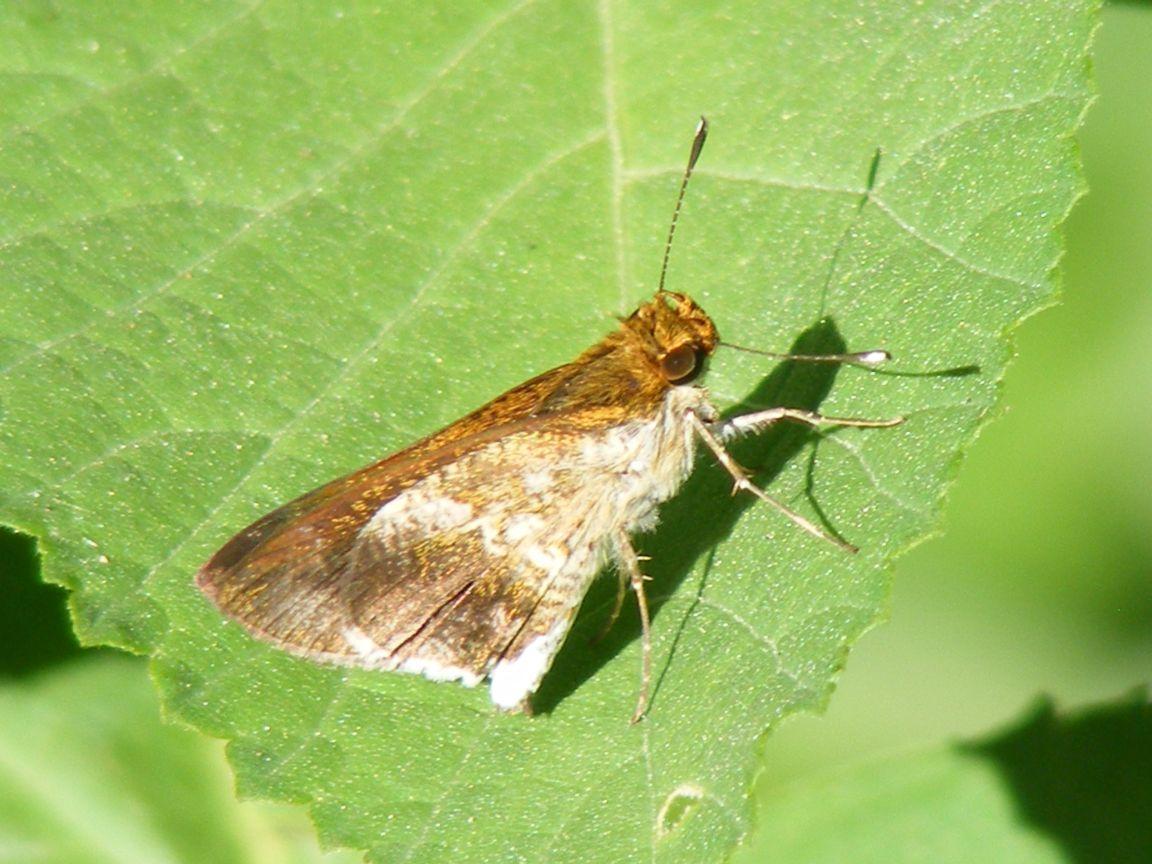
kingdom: Animalia
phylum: Arthropoda
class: Insecta
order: Lepidoptera
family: Hesperiidae
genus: Acleros
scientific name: Acleros mackenii
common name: Shade dart
